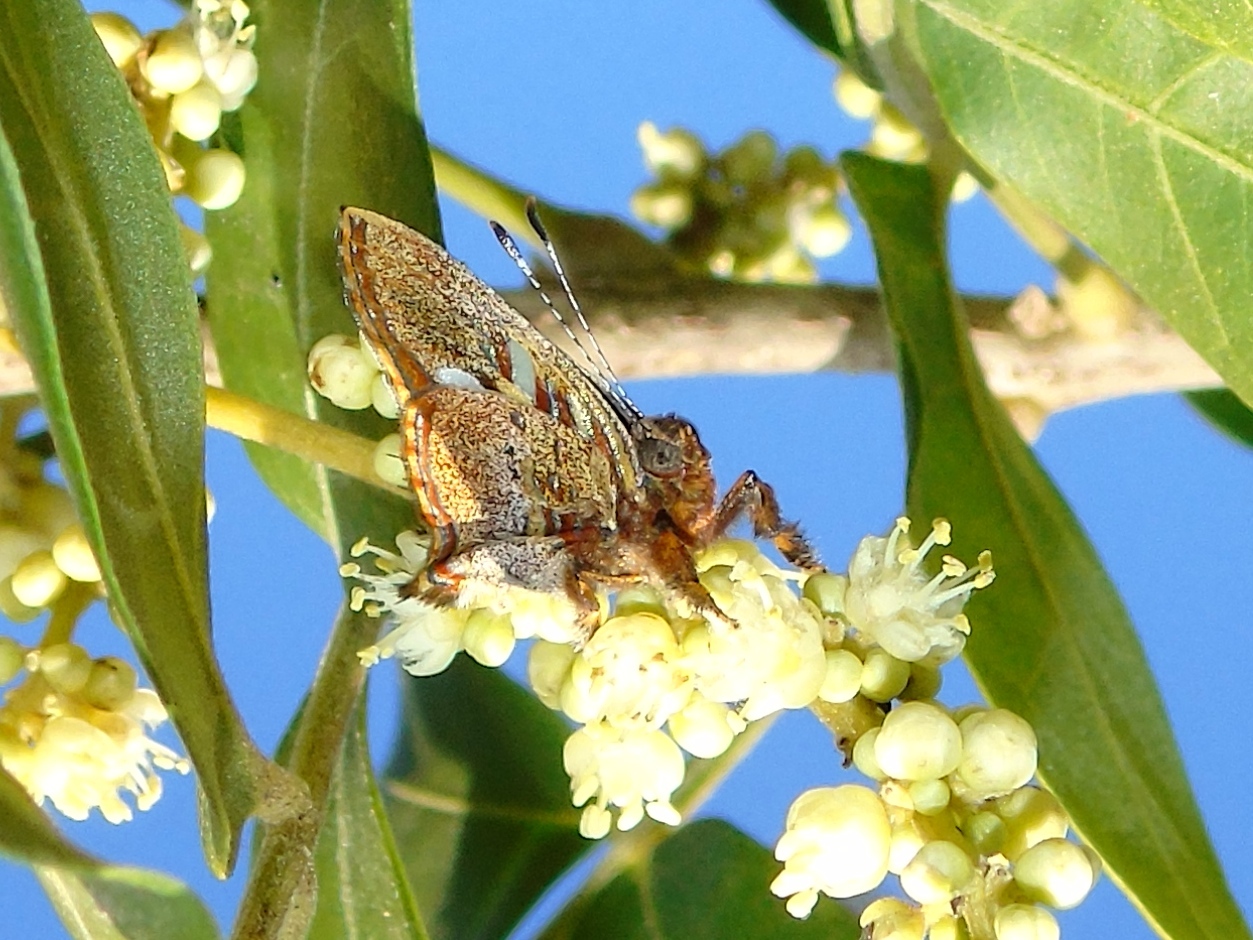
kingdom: Animalia
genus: Anteros
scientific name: Anteros carausius
